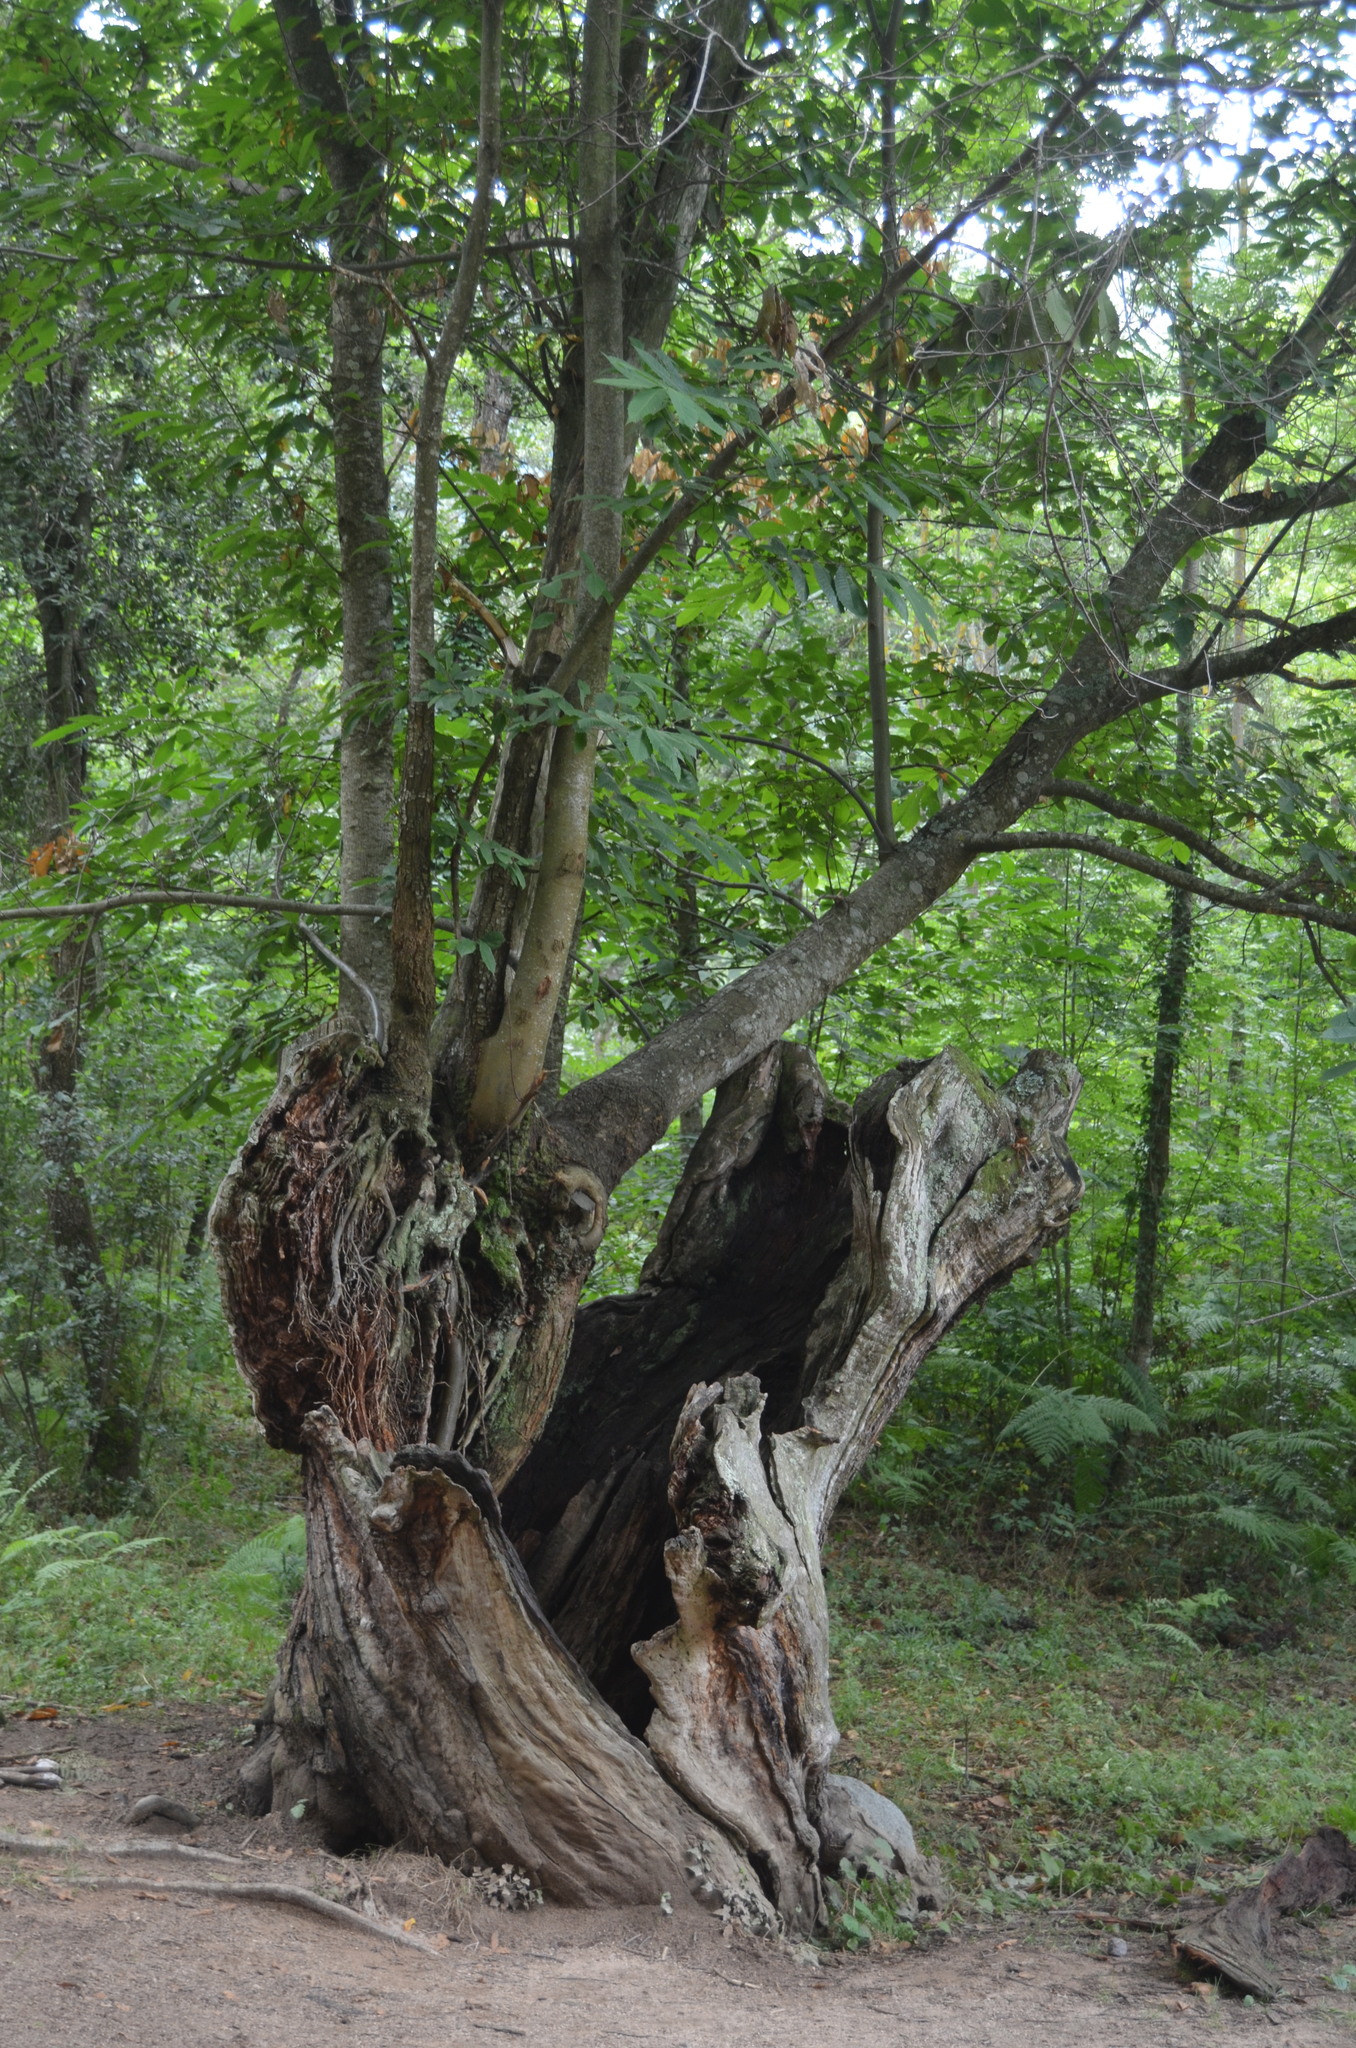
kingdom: Plantae
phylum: Tracheophyta
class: Magnoliopsida
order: Fagales
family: Fagaceae
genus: Castanea
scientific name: Castanea sativa
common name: Sweet chestnut
